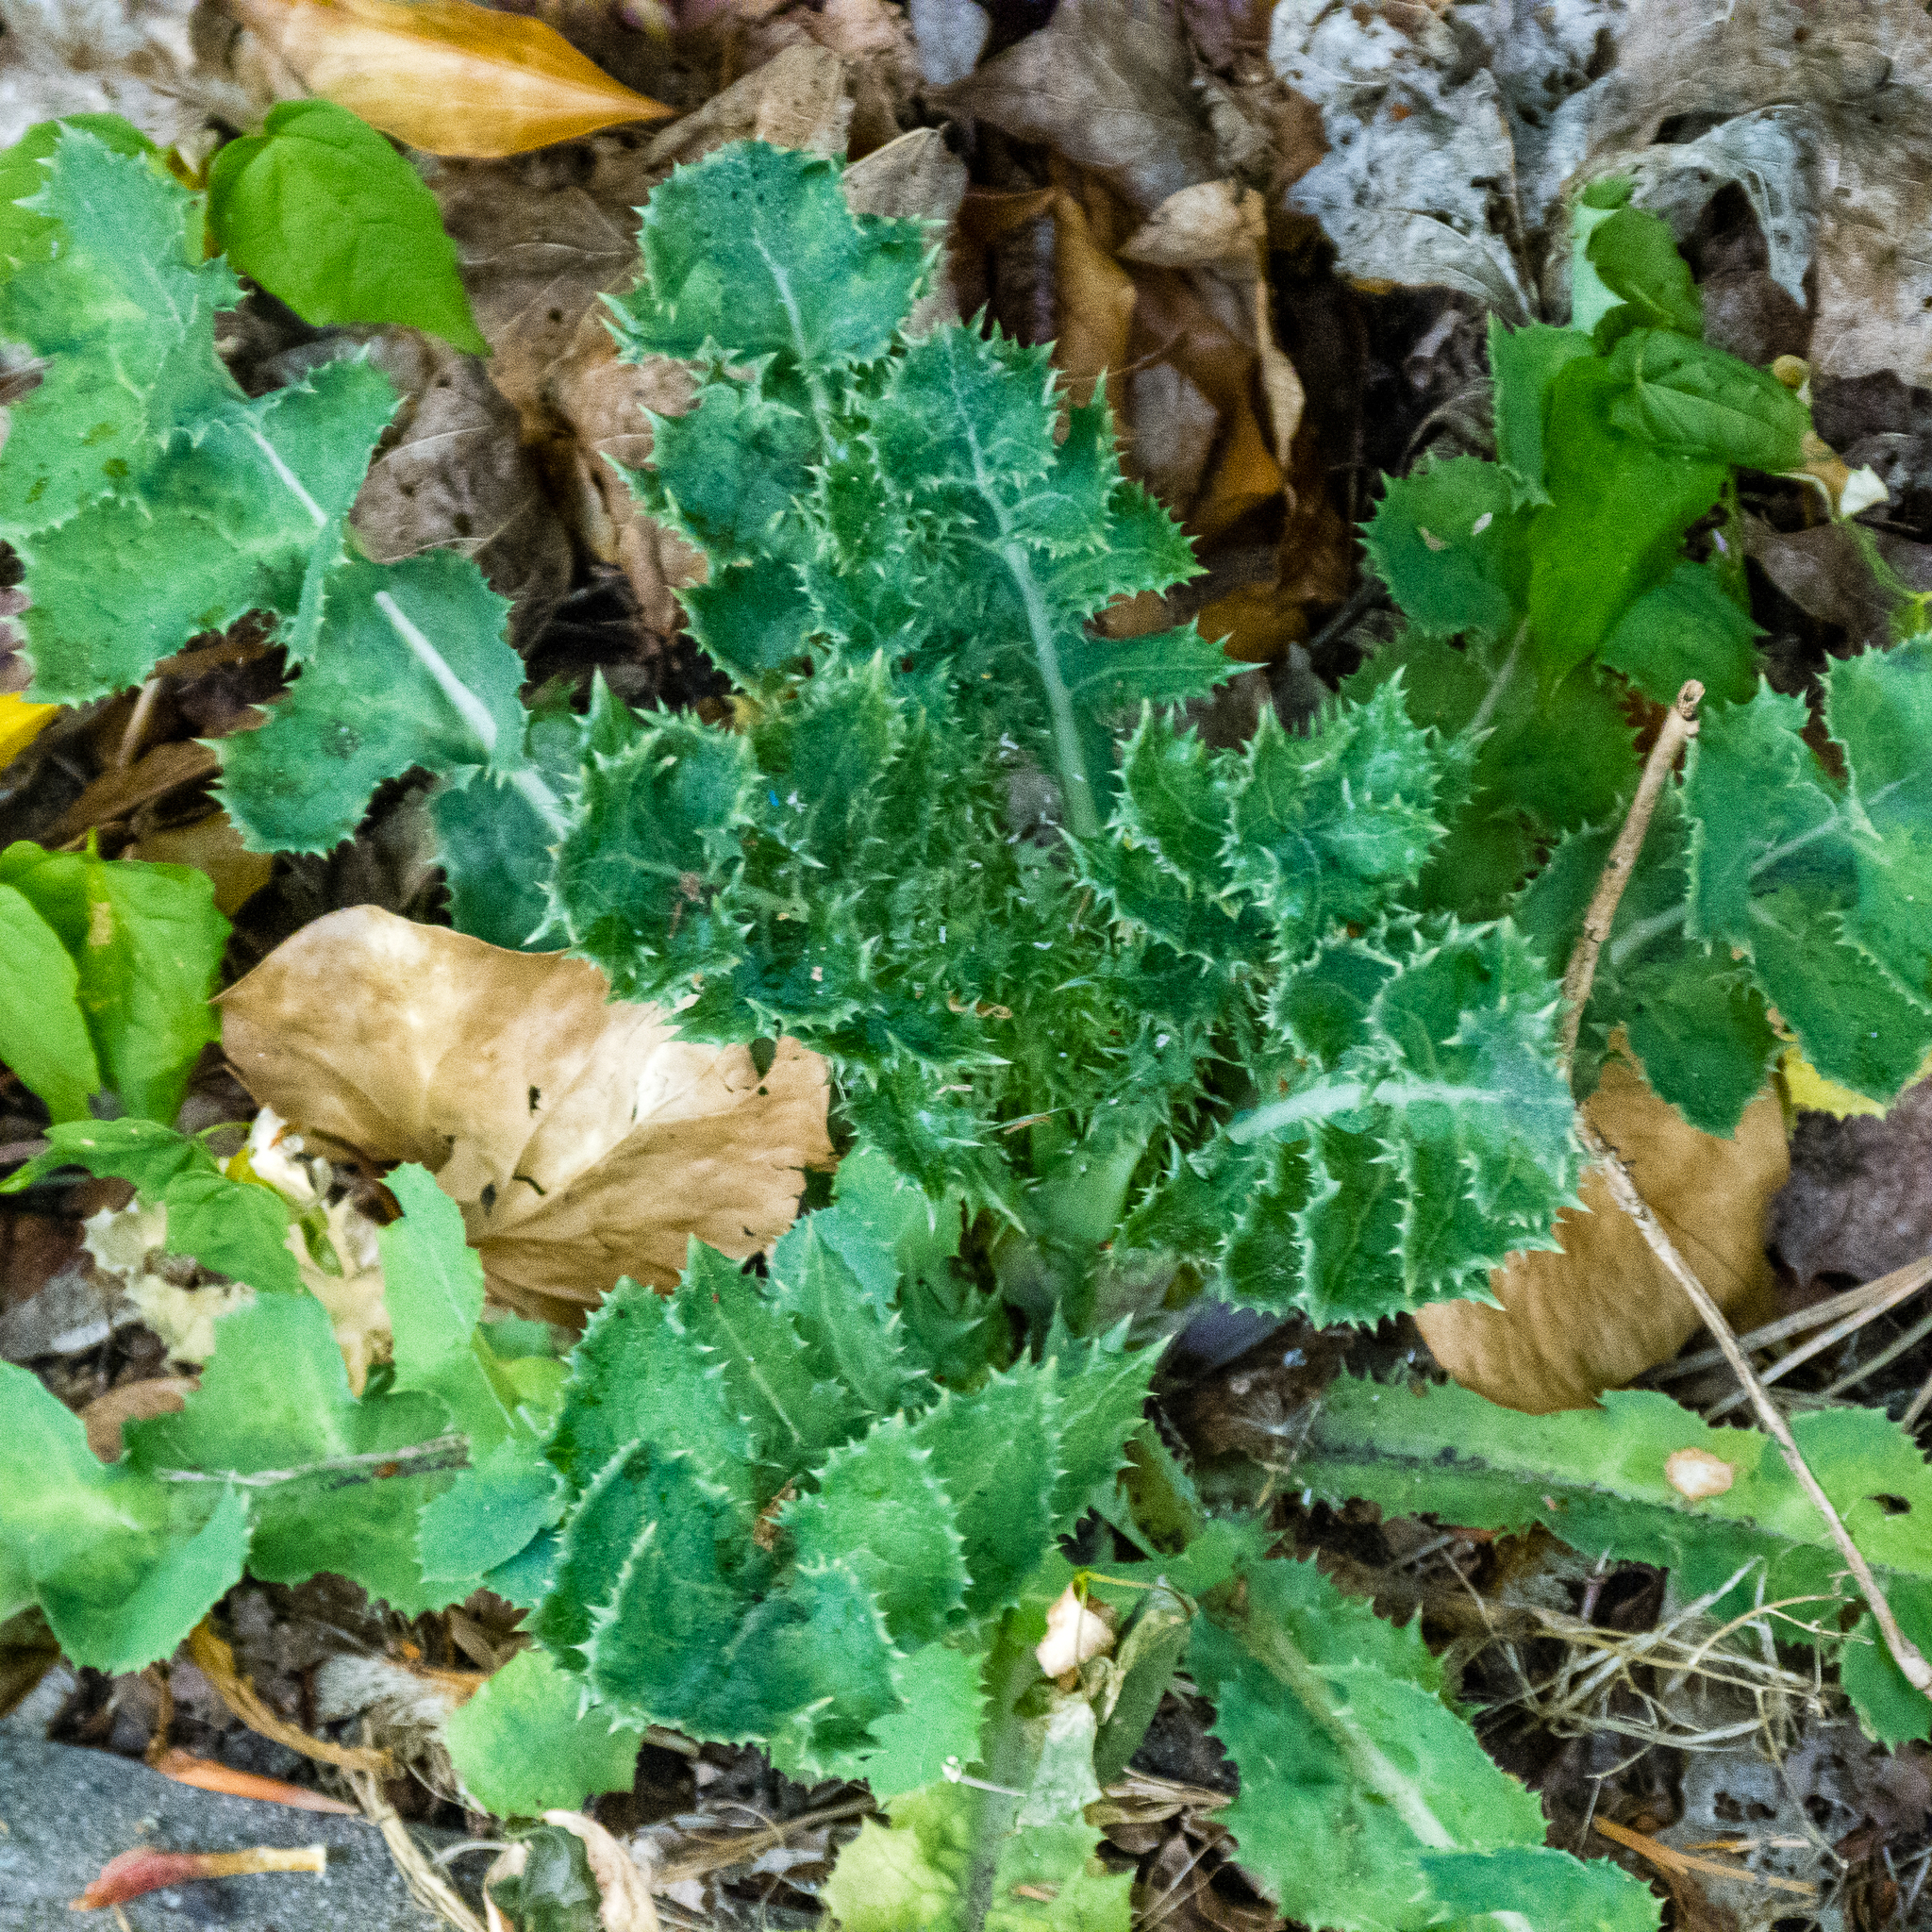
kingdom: Plantae
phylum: Tracheophyta
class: Magnoliopsida
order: Asterales
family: Asteraceae
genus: Sonchus
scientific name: Sonchus asper
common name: Prickly sow-thistle
